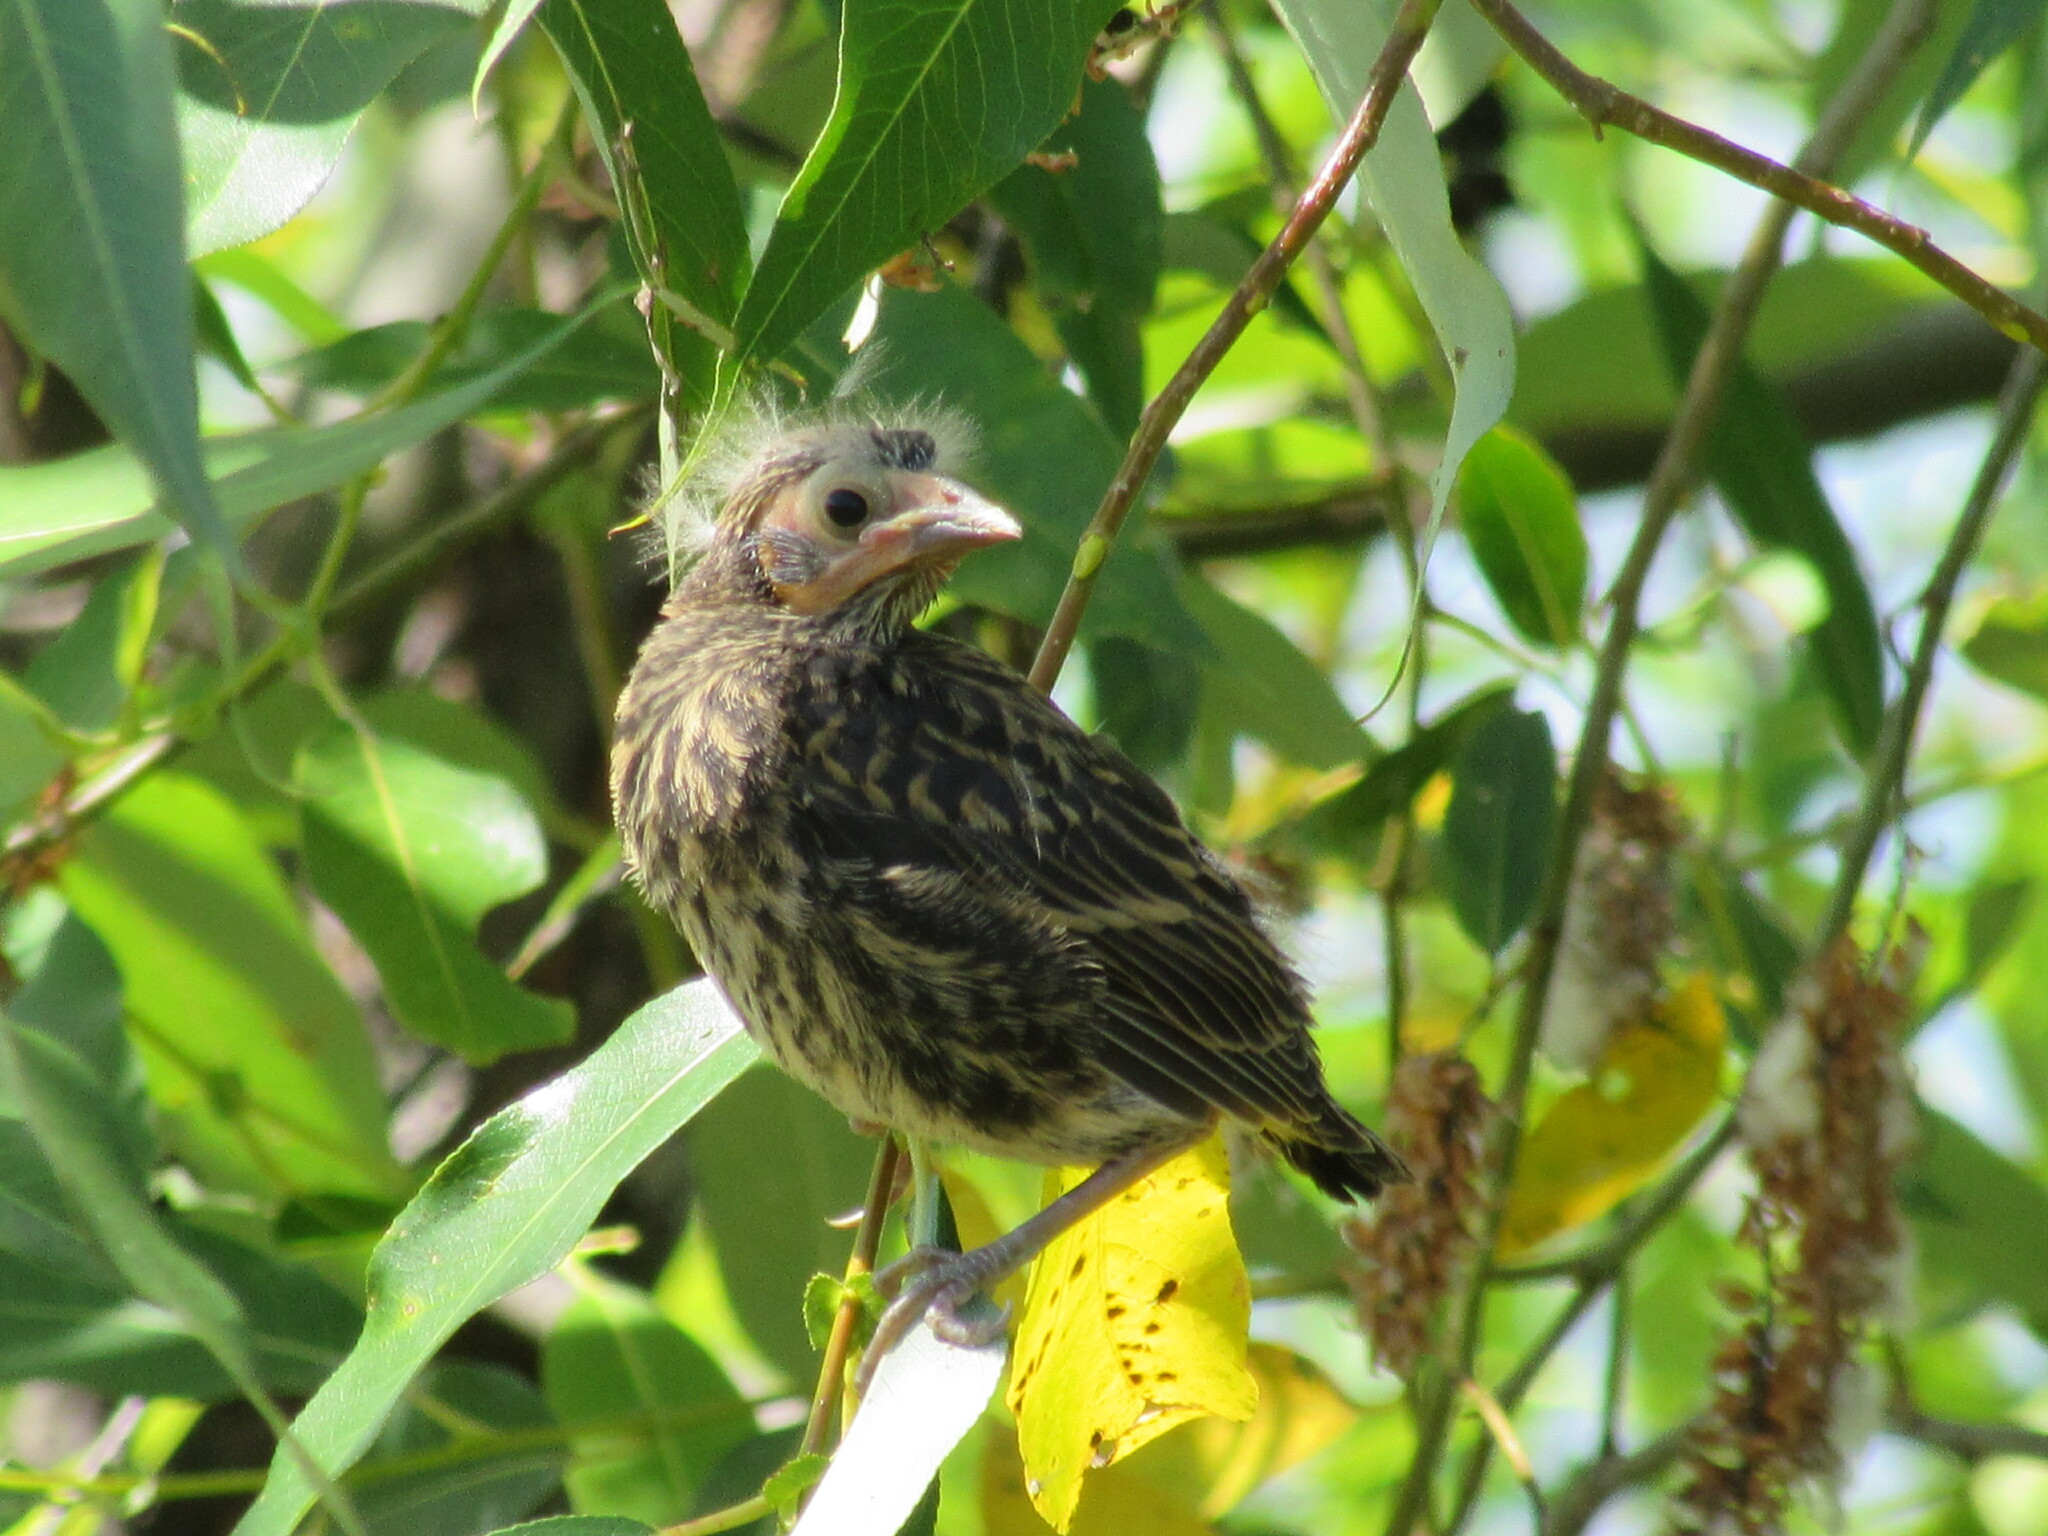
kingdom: Animalia
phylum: Chordata
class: Aves
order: Passeriformes
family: Icteridae
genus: Agelaius
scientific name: Agelaius phoeniceus
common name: Red-winged blackbird
